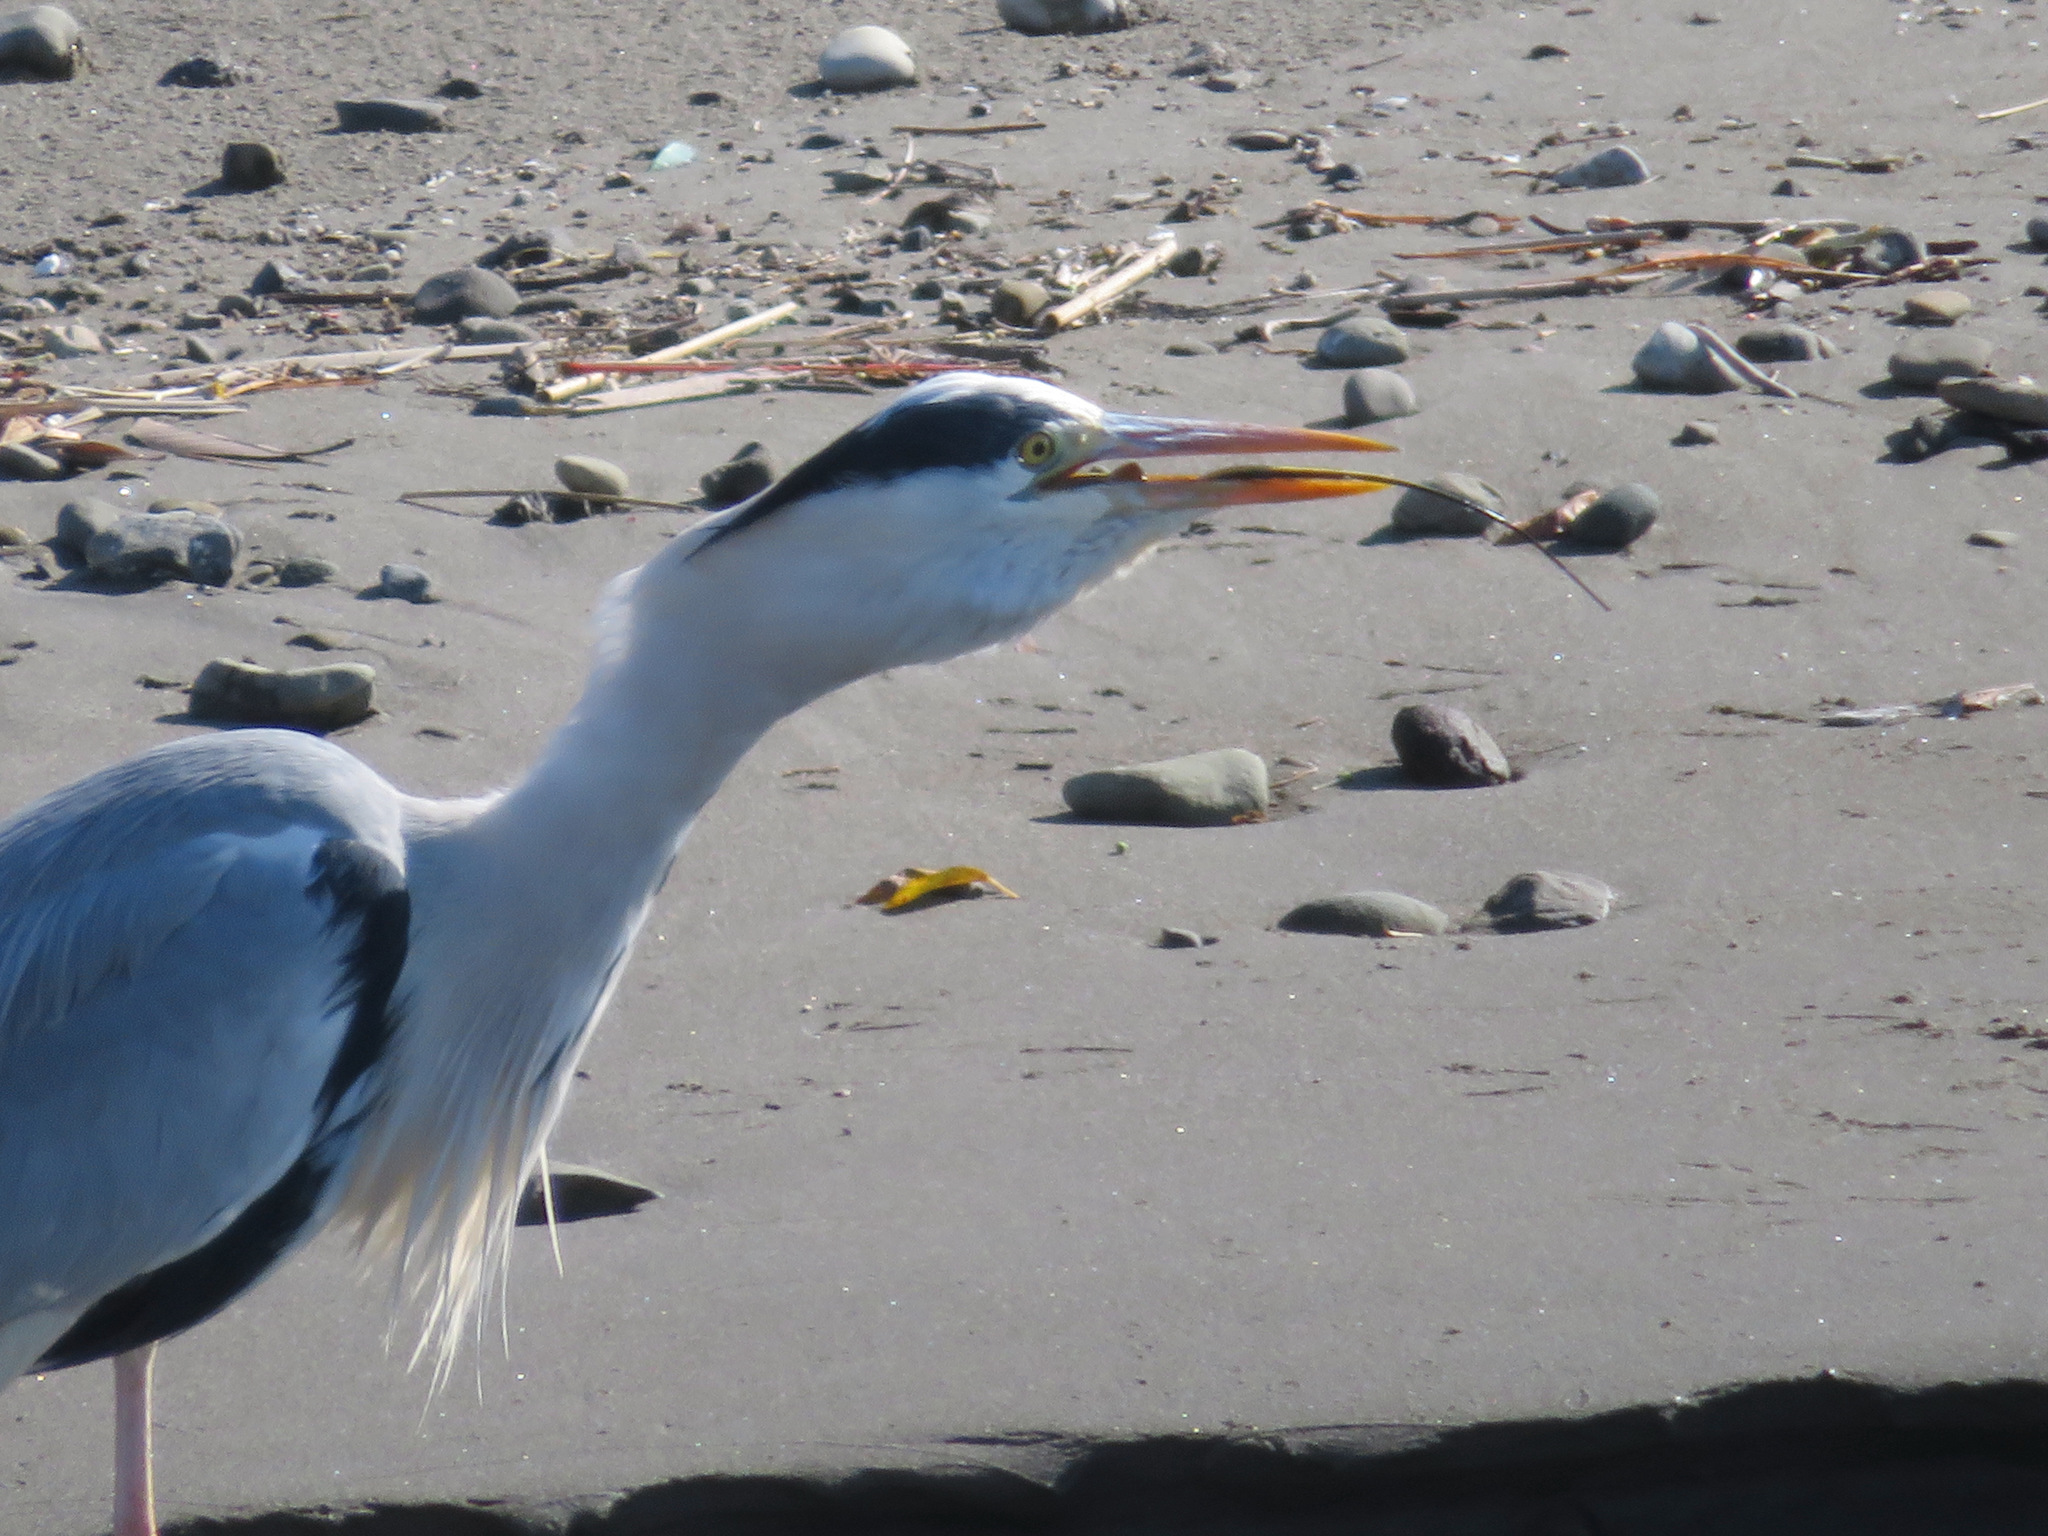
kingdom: Animalia
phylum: Chordata
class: Aves
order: Pelecaniformes
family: Ardeidae
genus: Ardea
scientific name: Ardea cinerea
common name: Grey heron
